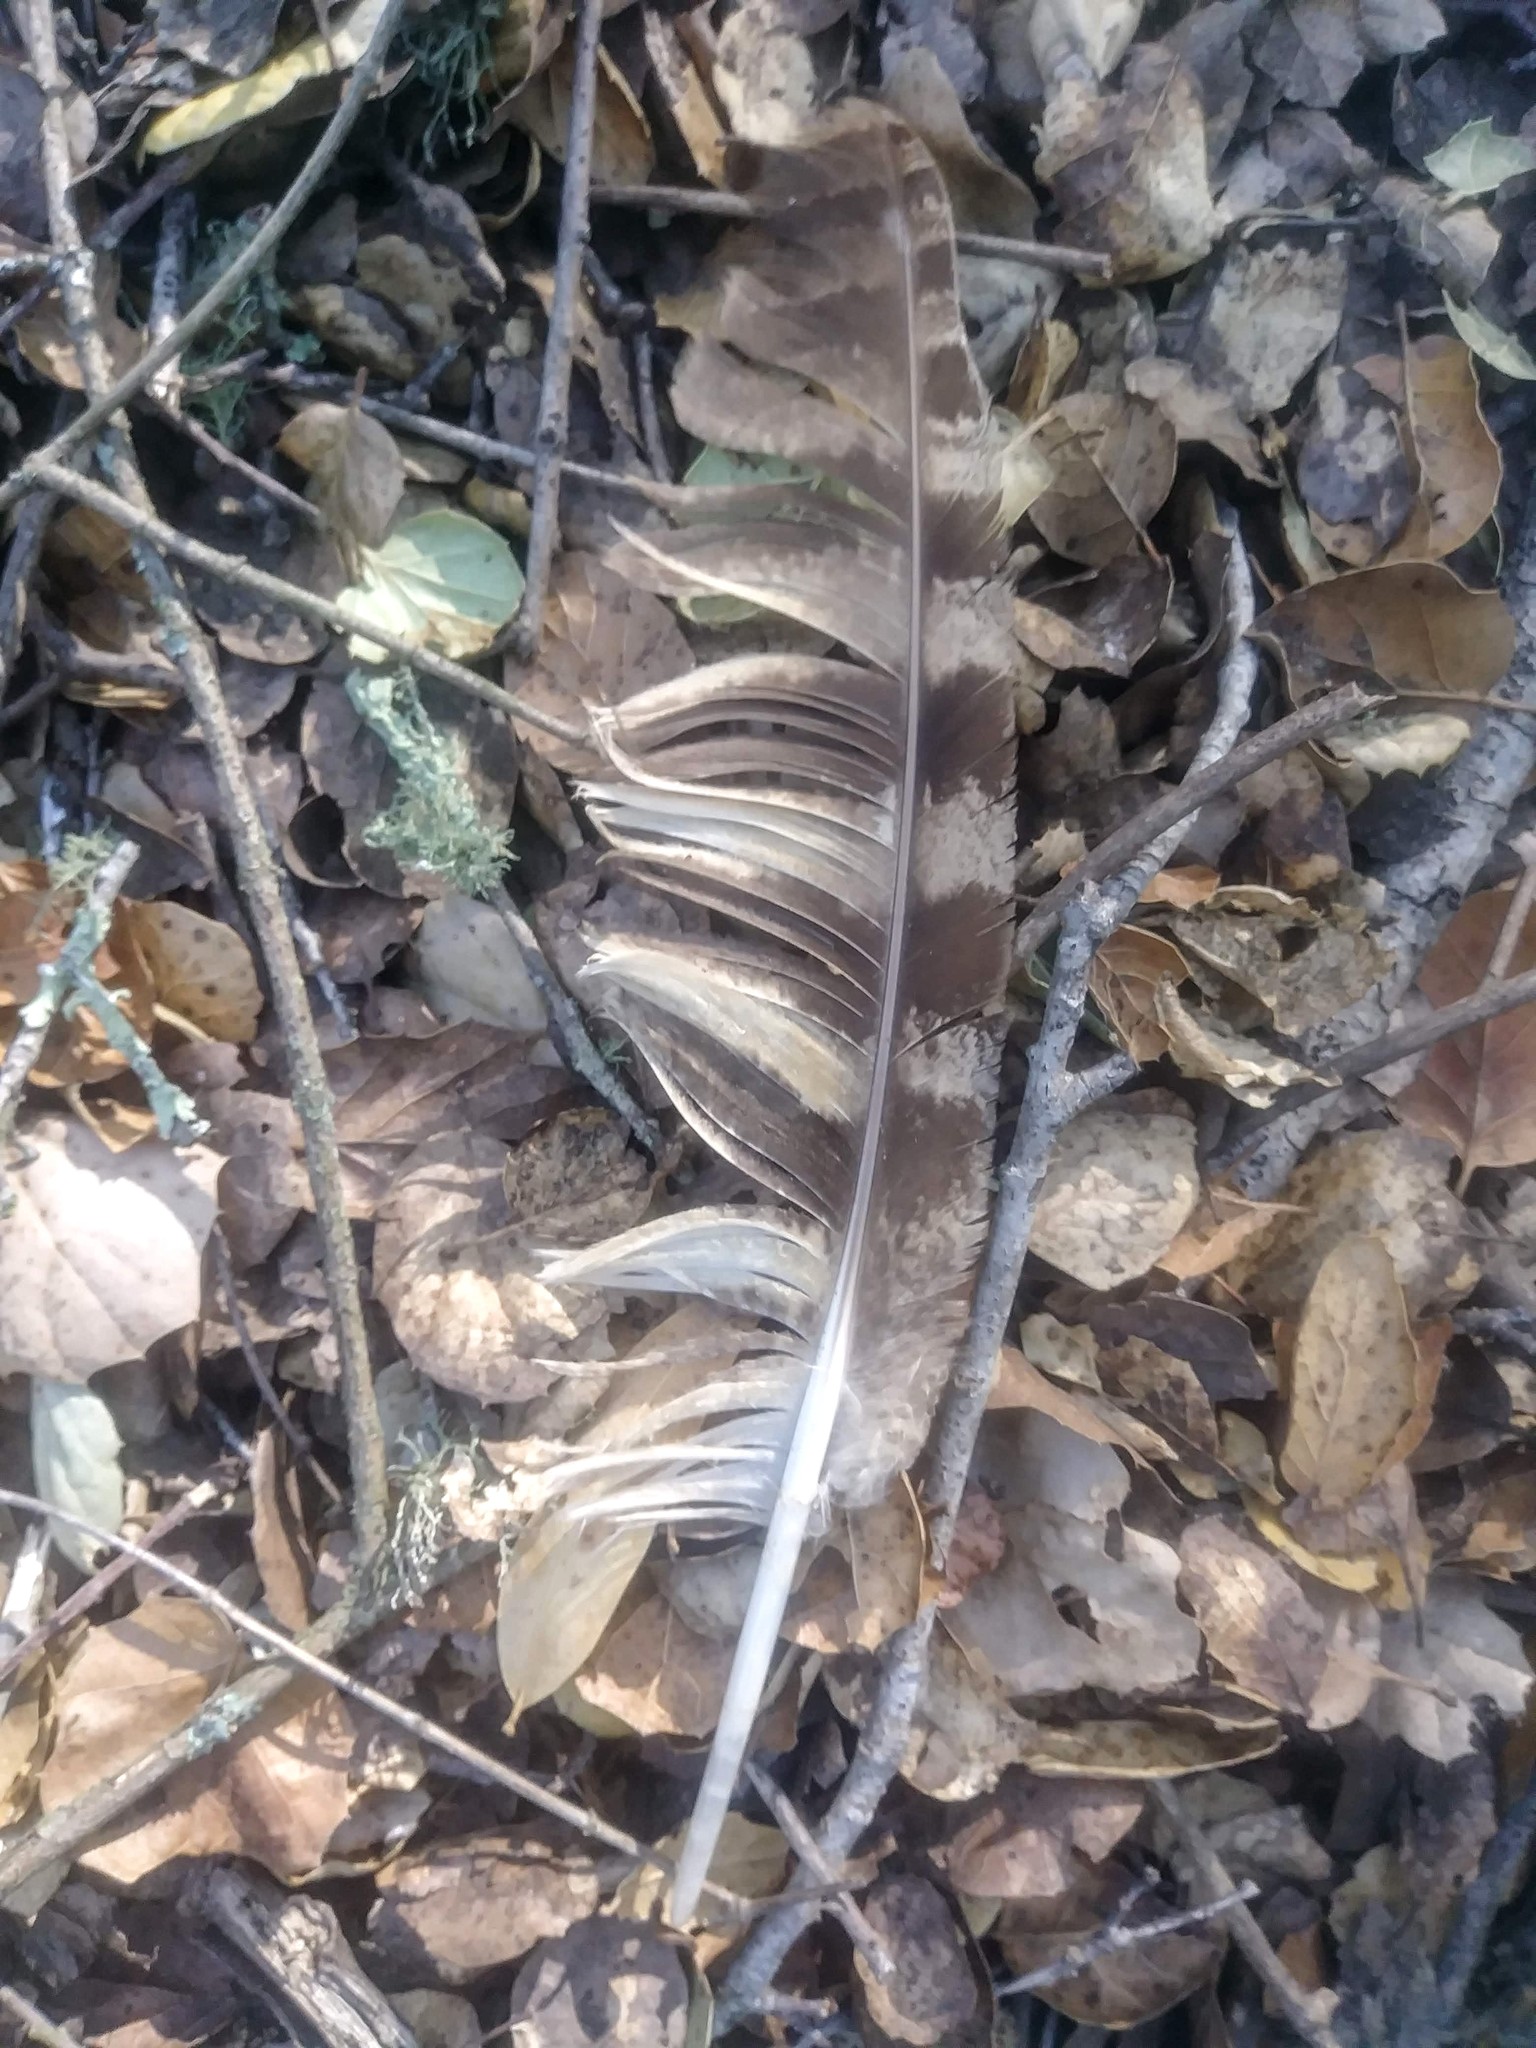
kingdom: Animalia
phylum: Chordata
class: Aves
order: Strigiformes
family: Strigidae
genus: Bubo
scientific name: Bubo virginianus
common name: Great horned owl
